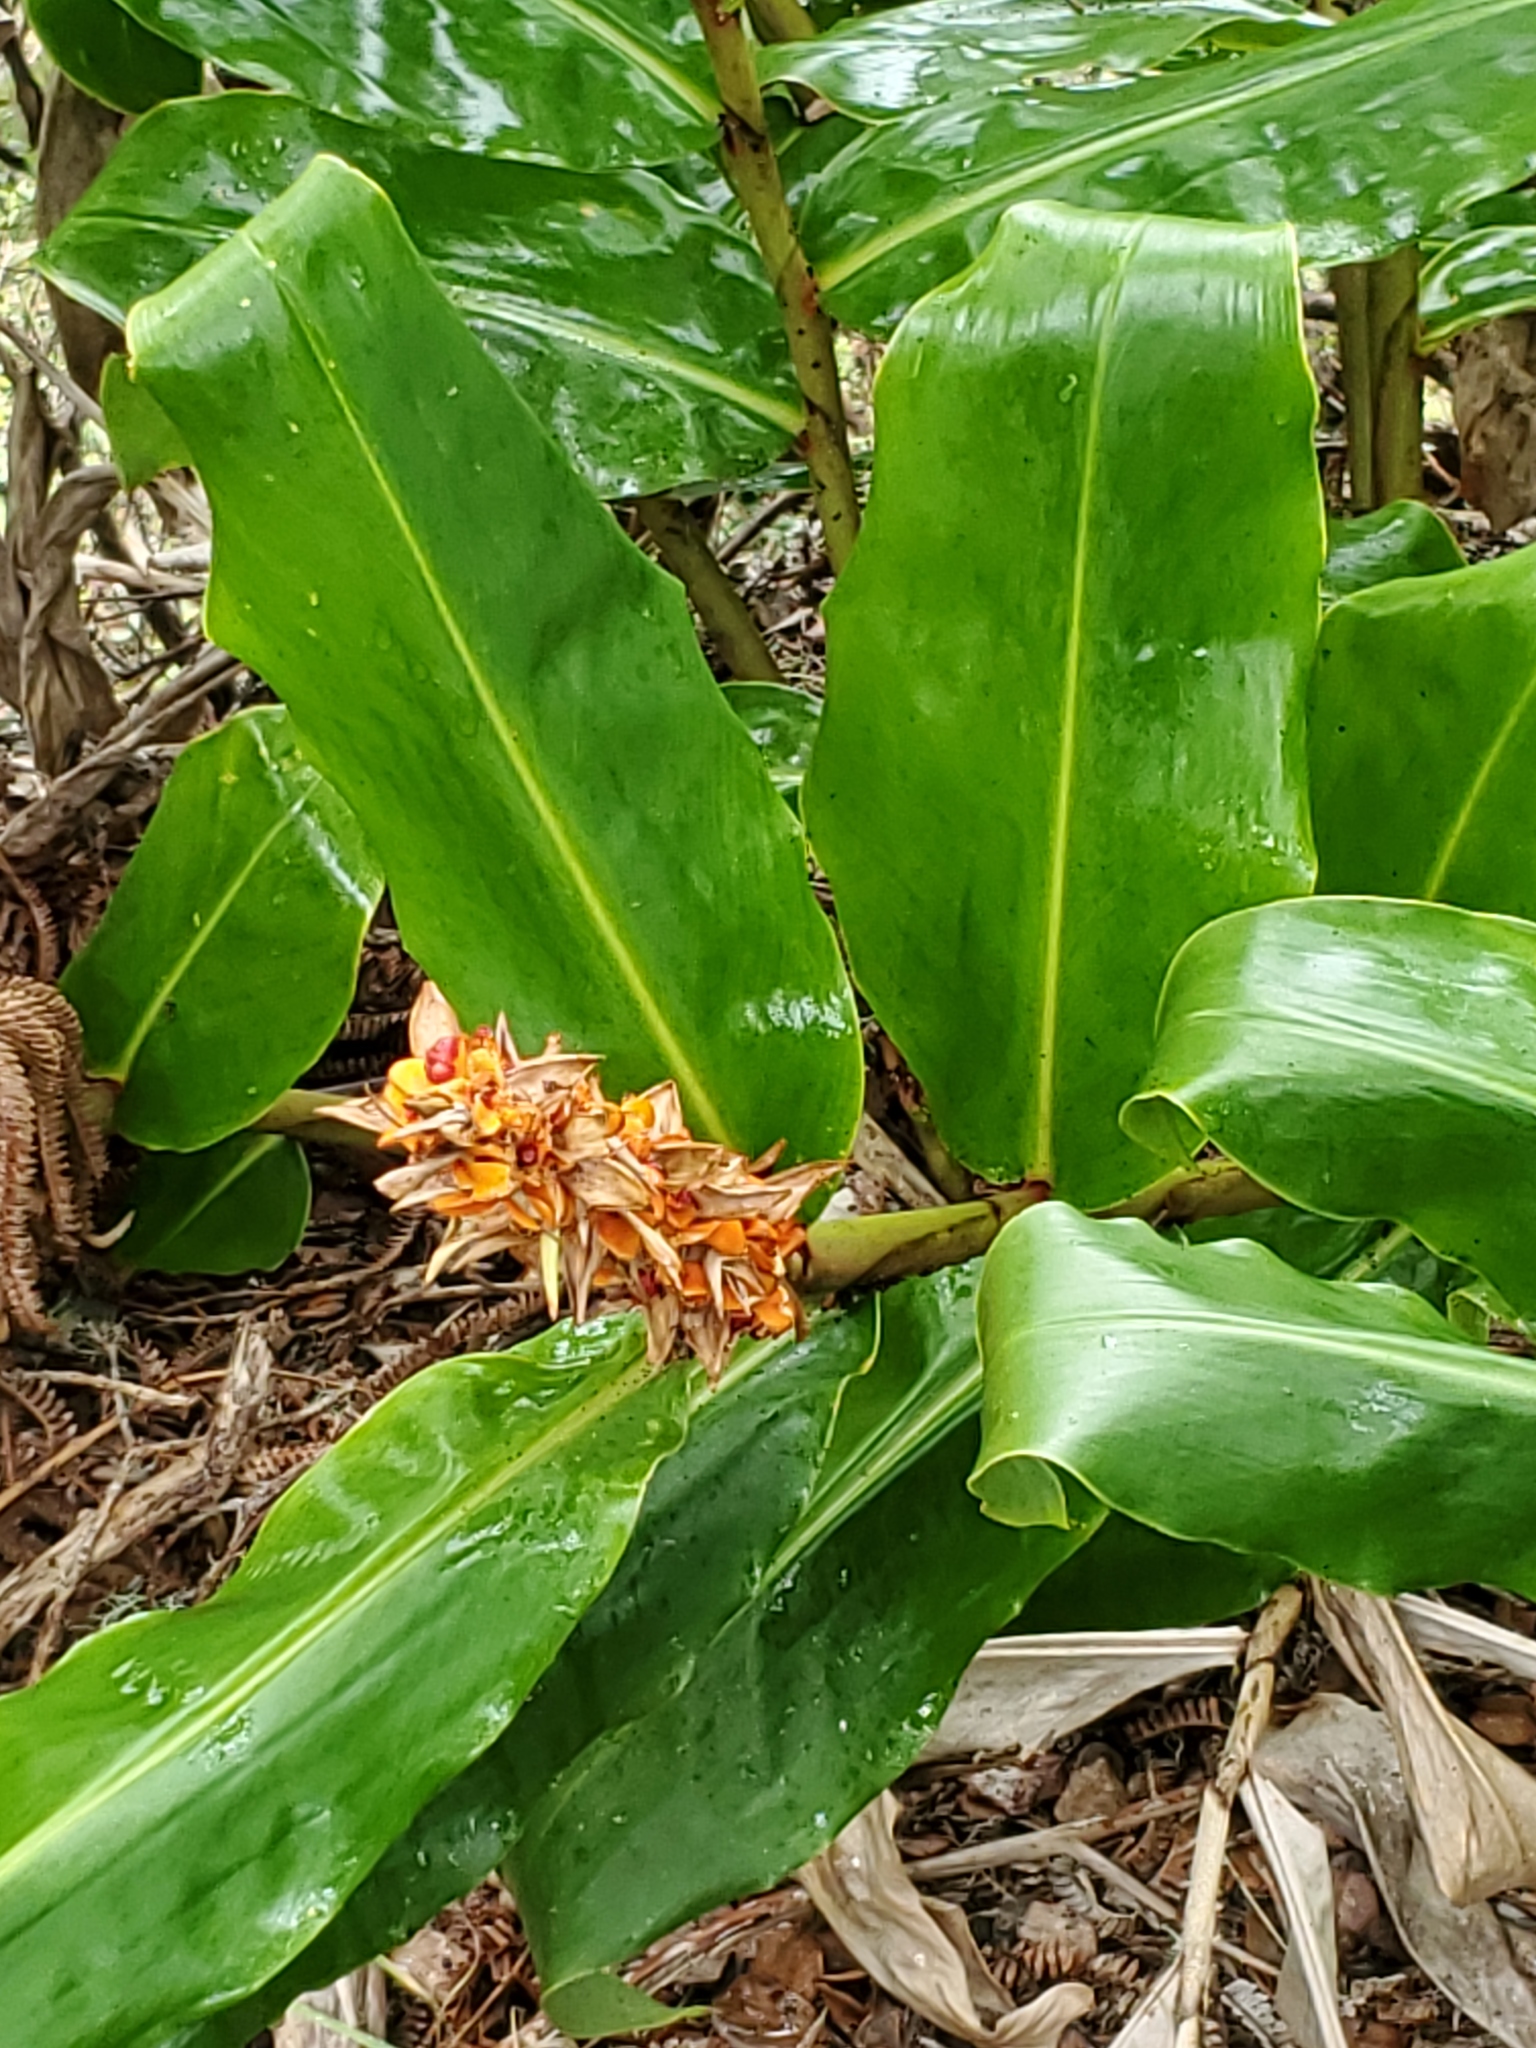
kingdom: Plantae
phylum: Tracheophyta
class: Liliopsida
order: Zingiberales
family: Zingiberaceae
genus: Hedychium
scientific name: Hedychium gardnerianum
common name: Himalayan ginger
